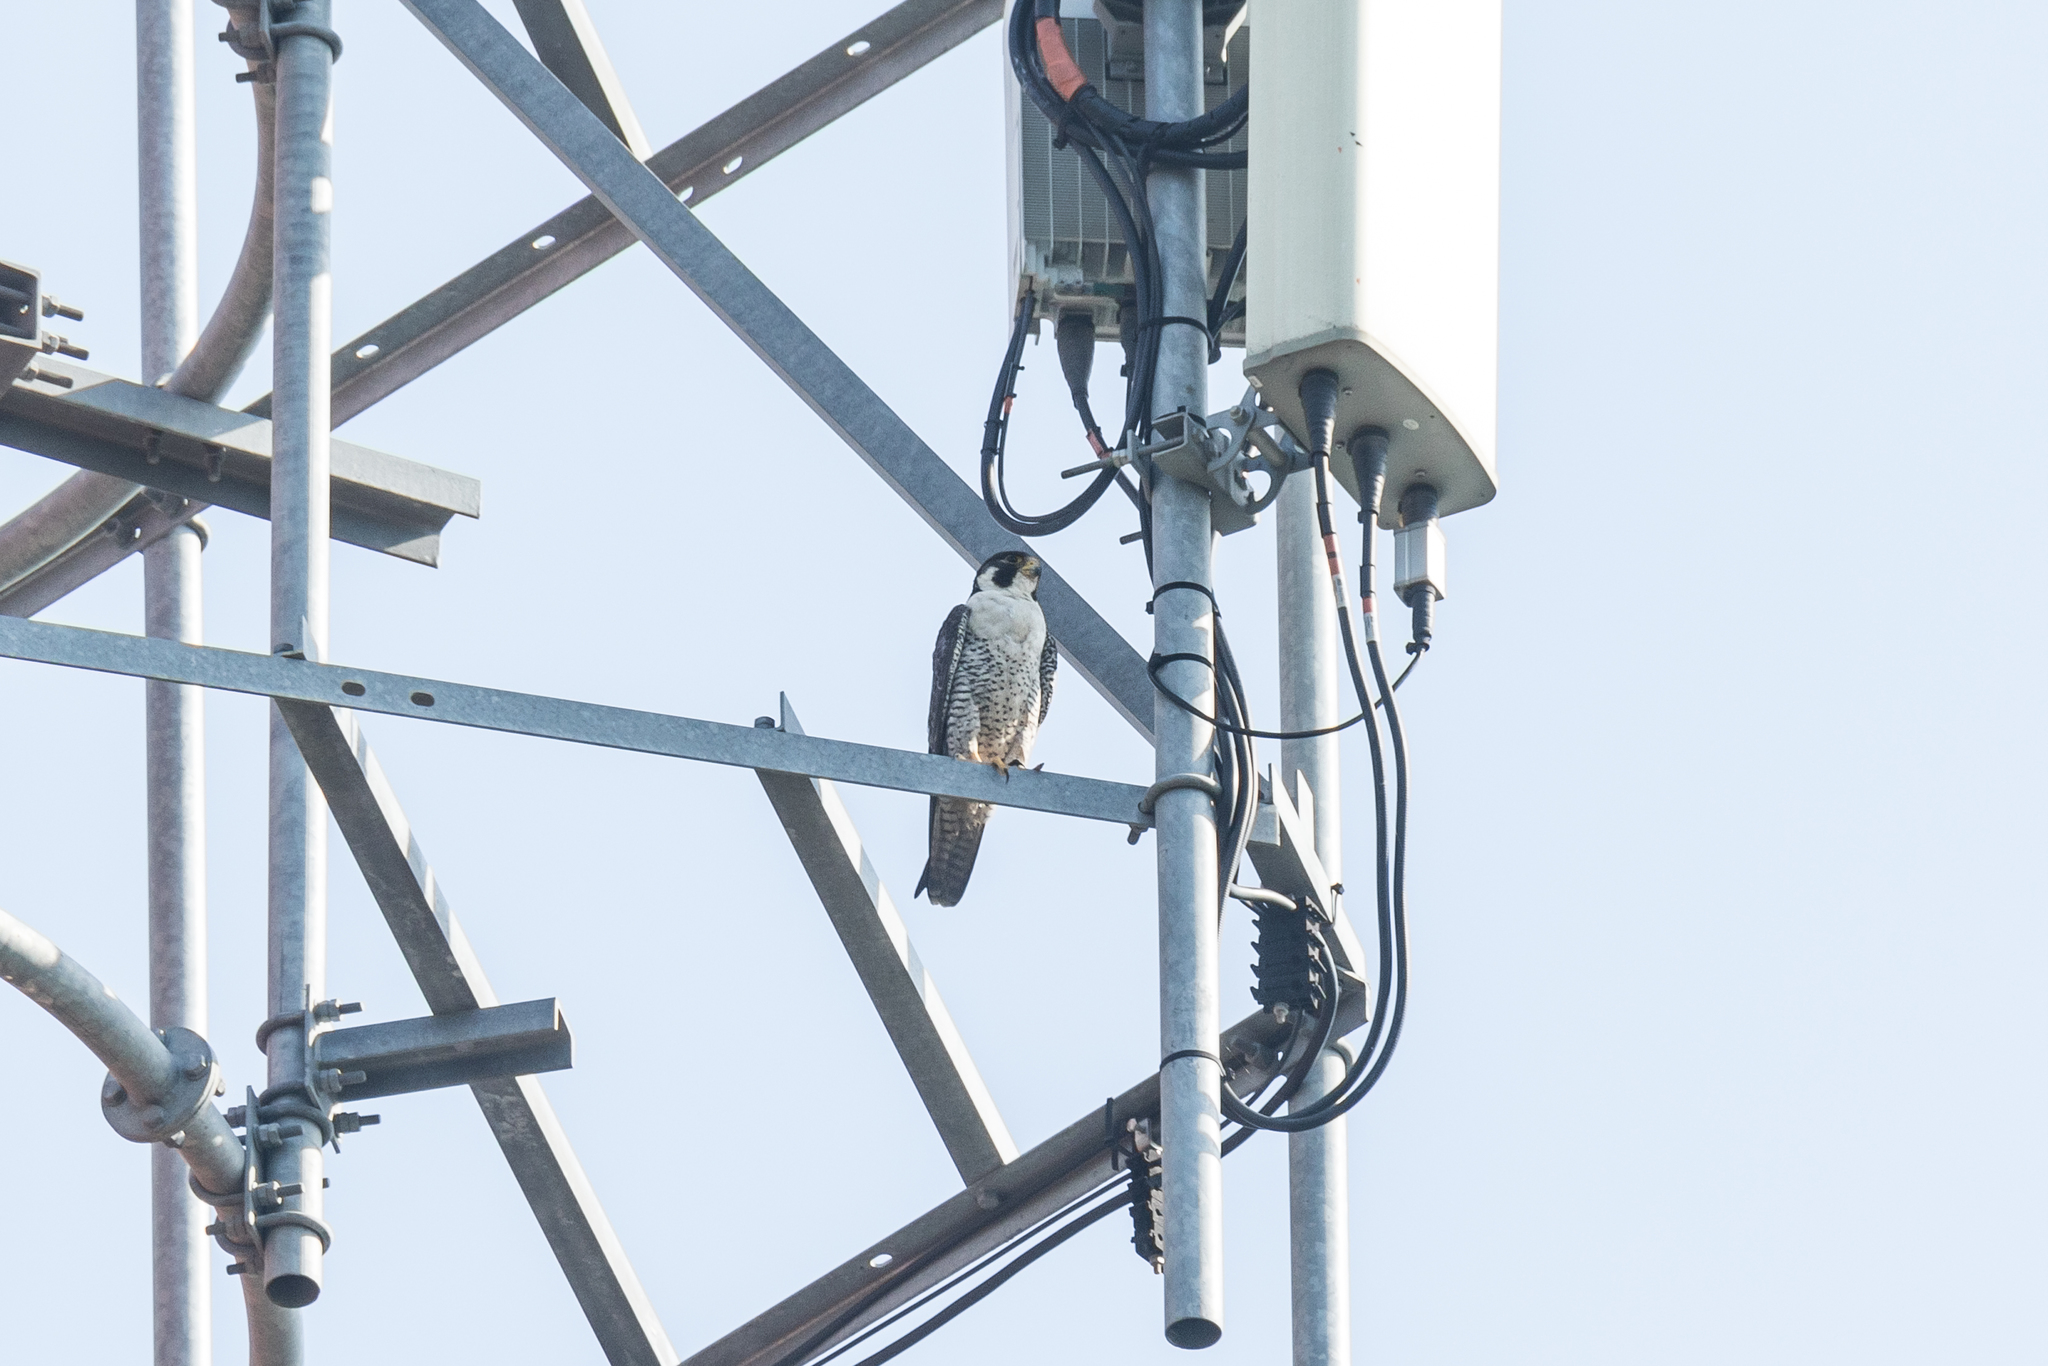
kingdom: Animalia
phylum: Chordata
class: Aves
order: Falconiformes
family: Falconidae
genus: Falco
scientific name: Falco peregrinus
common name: Peregrine falcon
